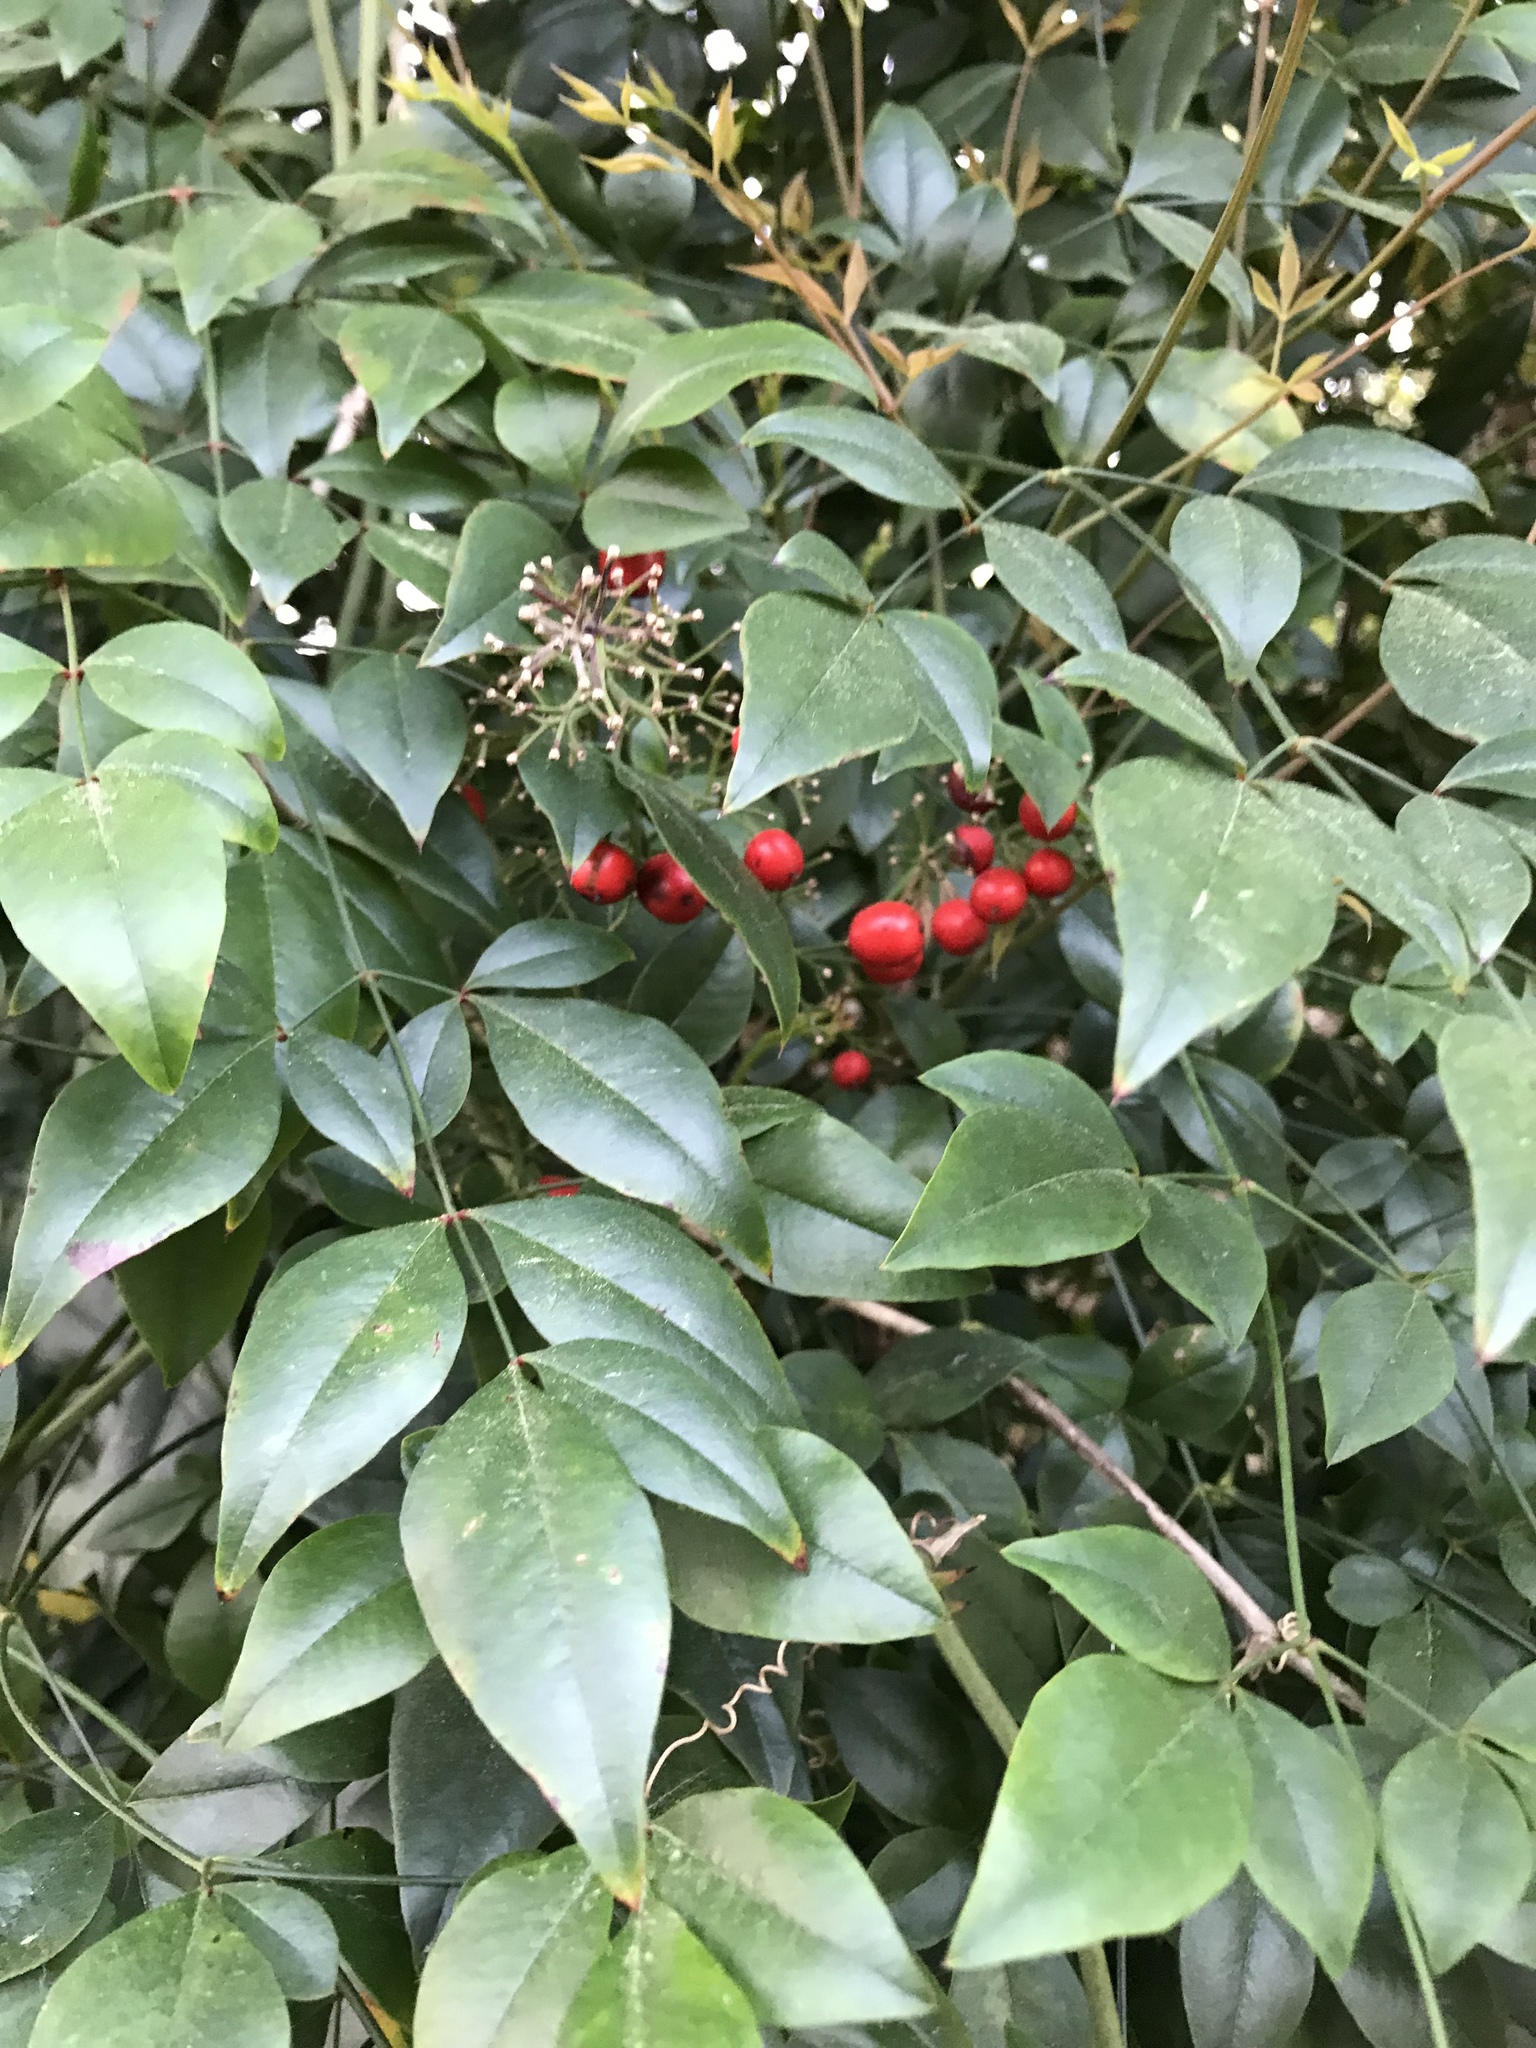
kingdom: Plantae
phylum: Tracheophyta
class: Magnoliopsida
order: Ranunculales
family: Berberidaceae
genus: Nandina
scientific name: Nandina domestica
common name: Sacred bamboo
